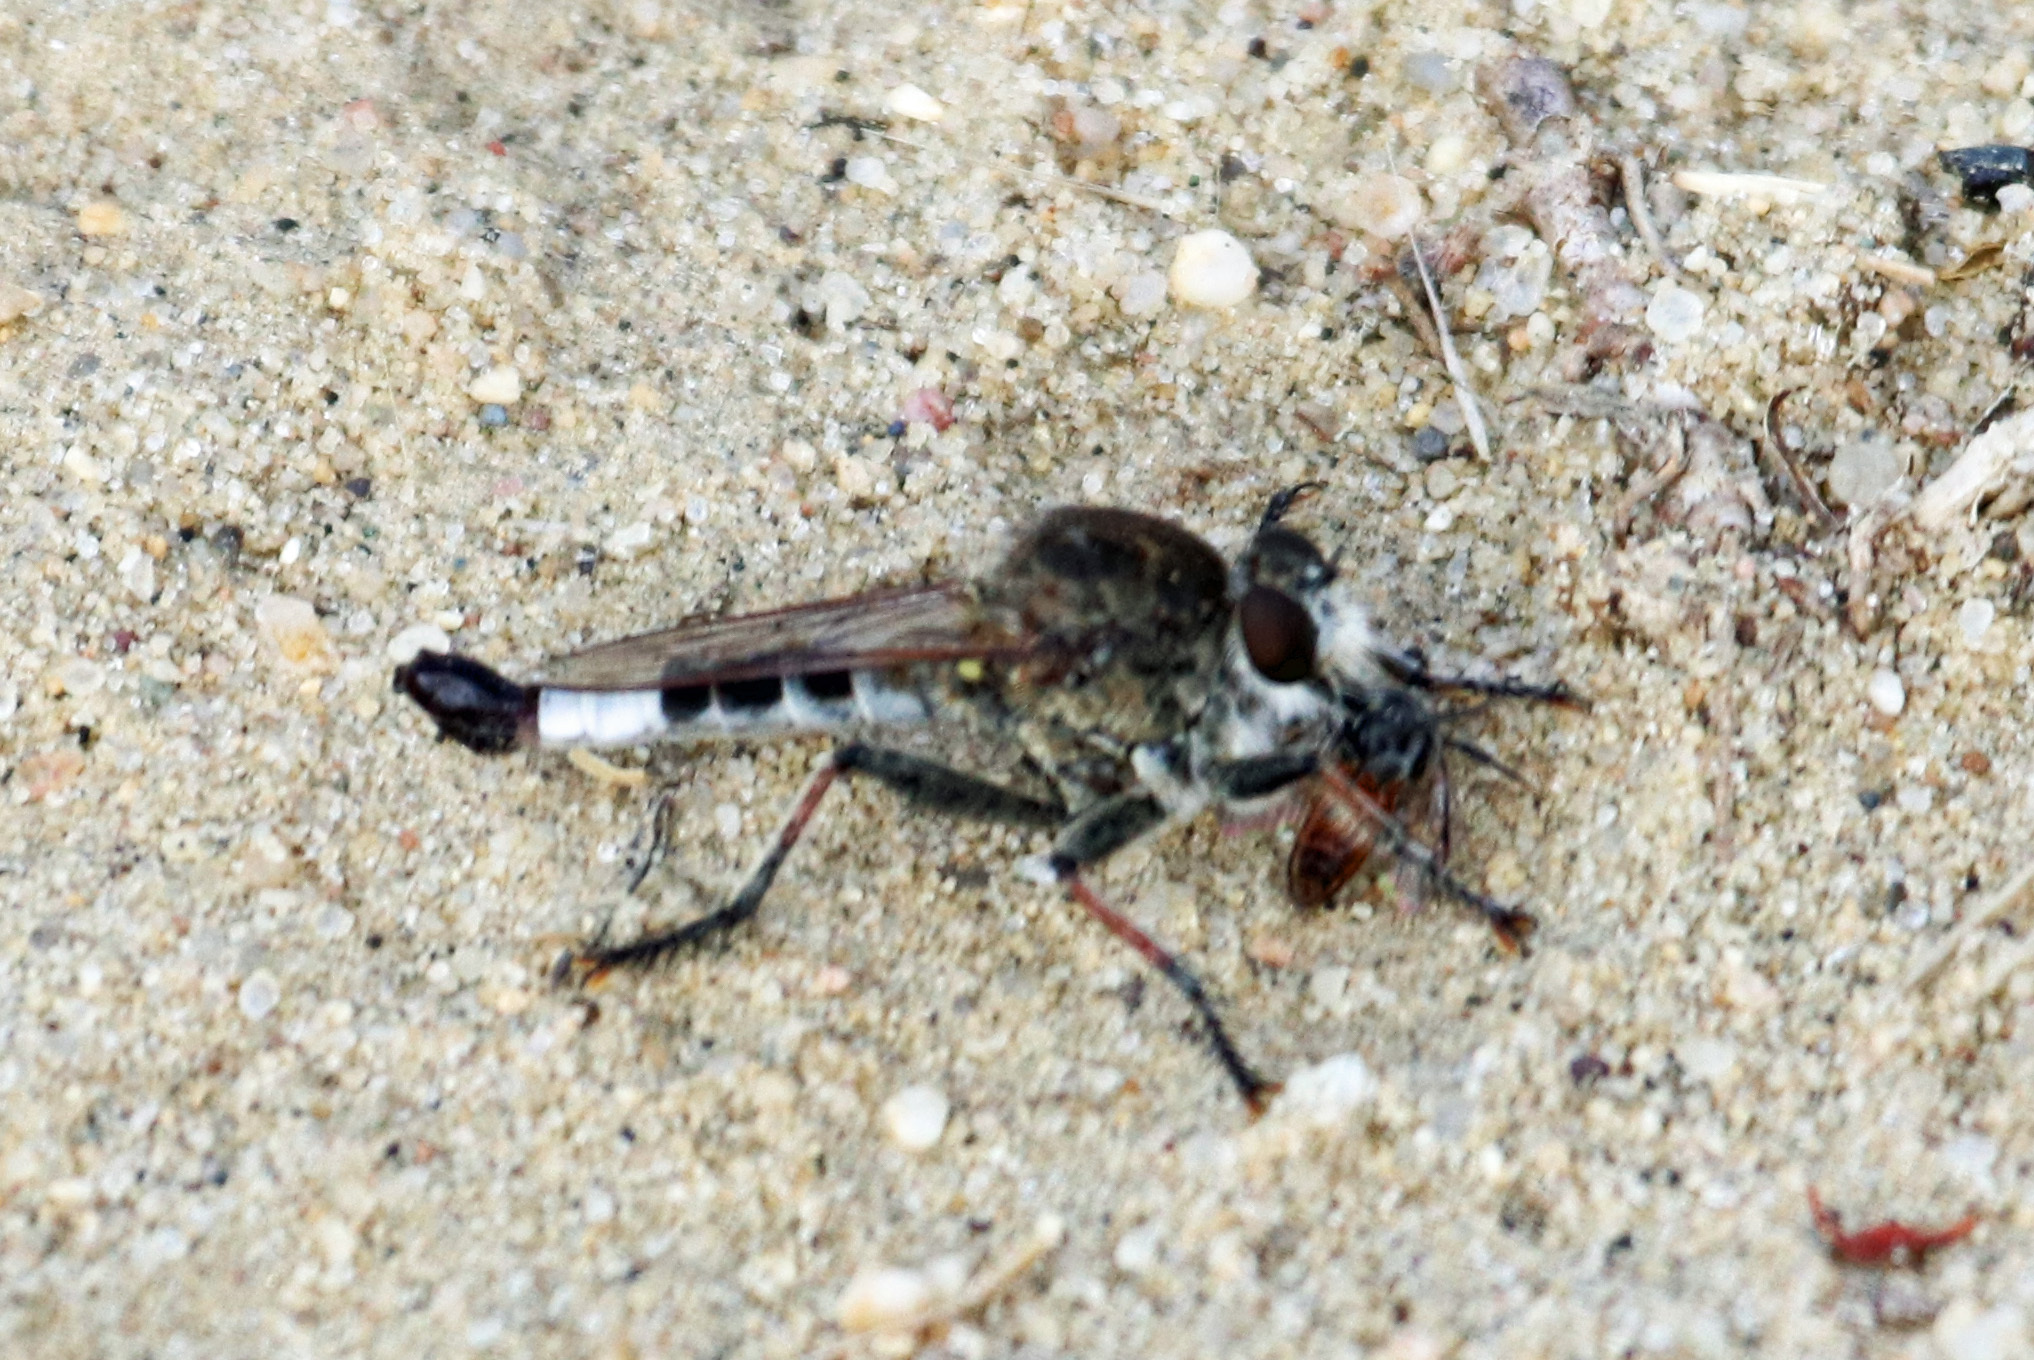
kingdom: Animalia
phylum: Arthropoda
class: Insecta
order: Diptera
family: Asilidae
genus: Efferia
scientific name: Efferia albibarbis
